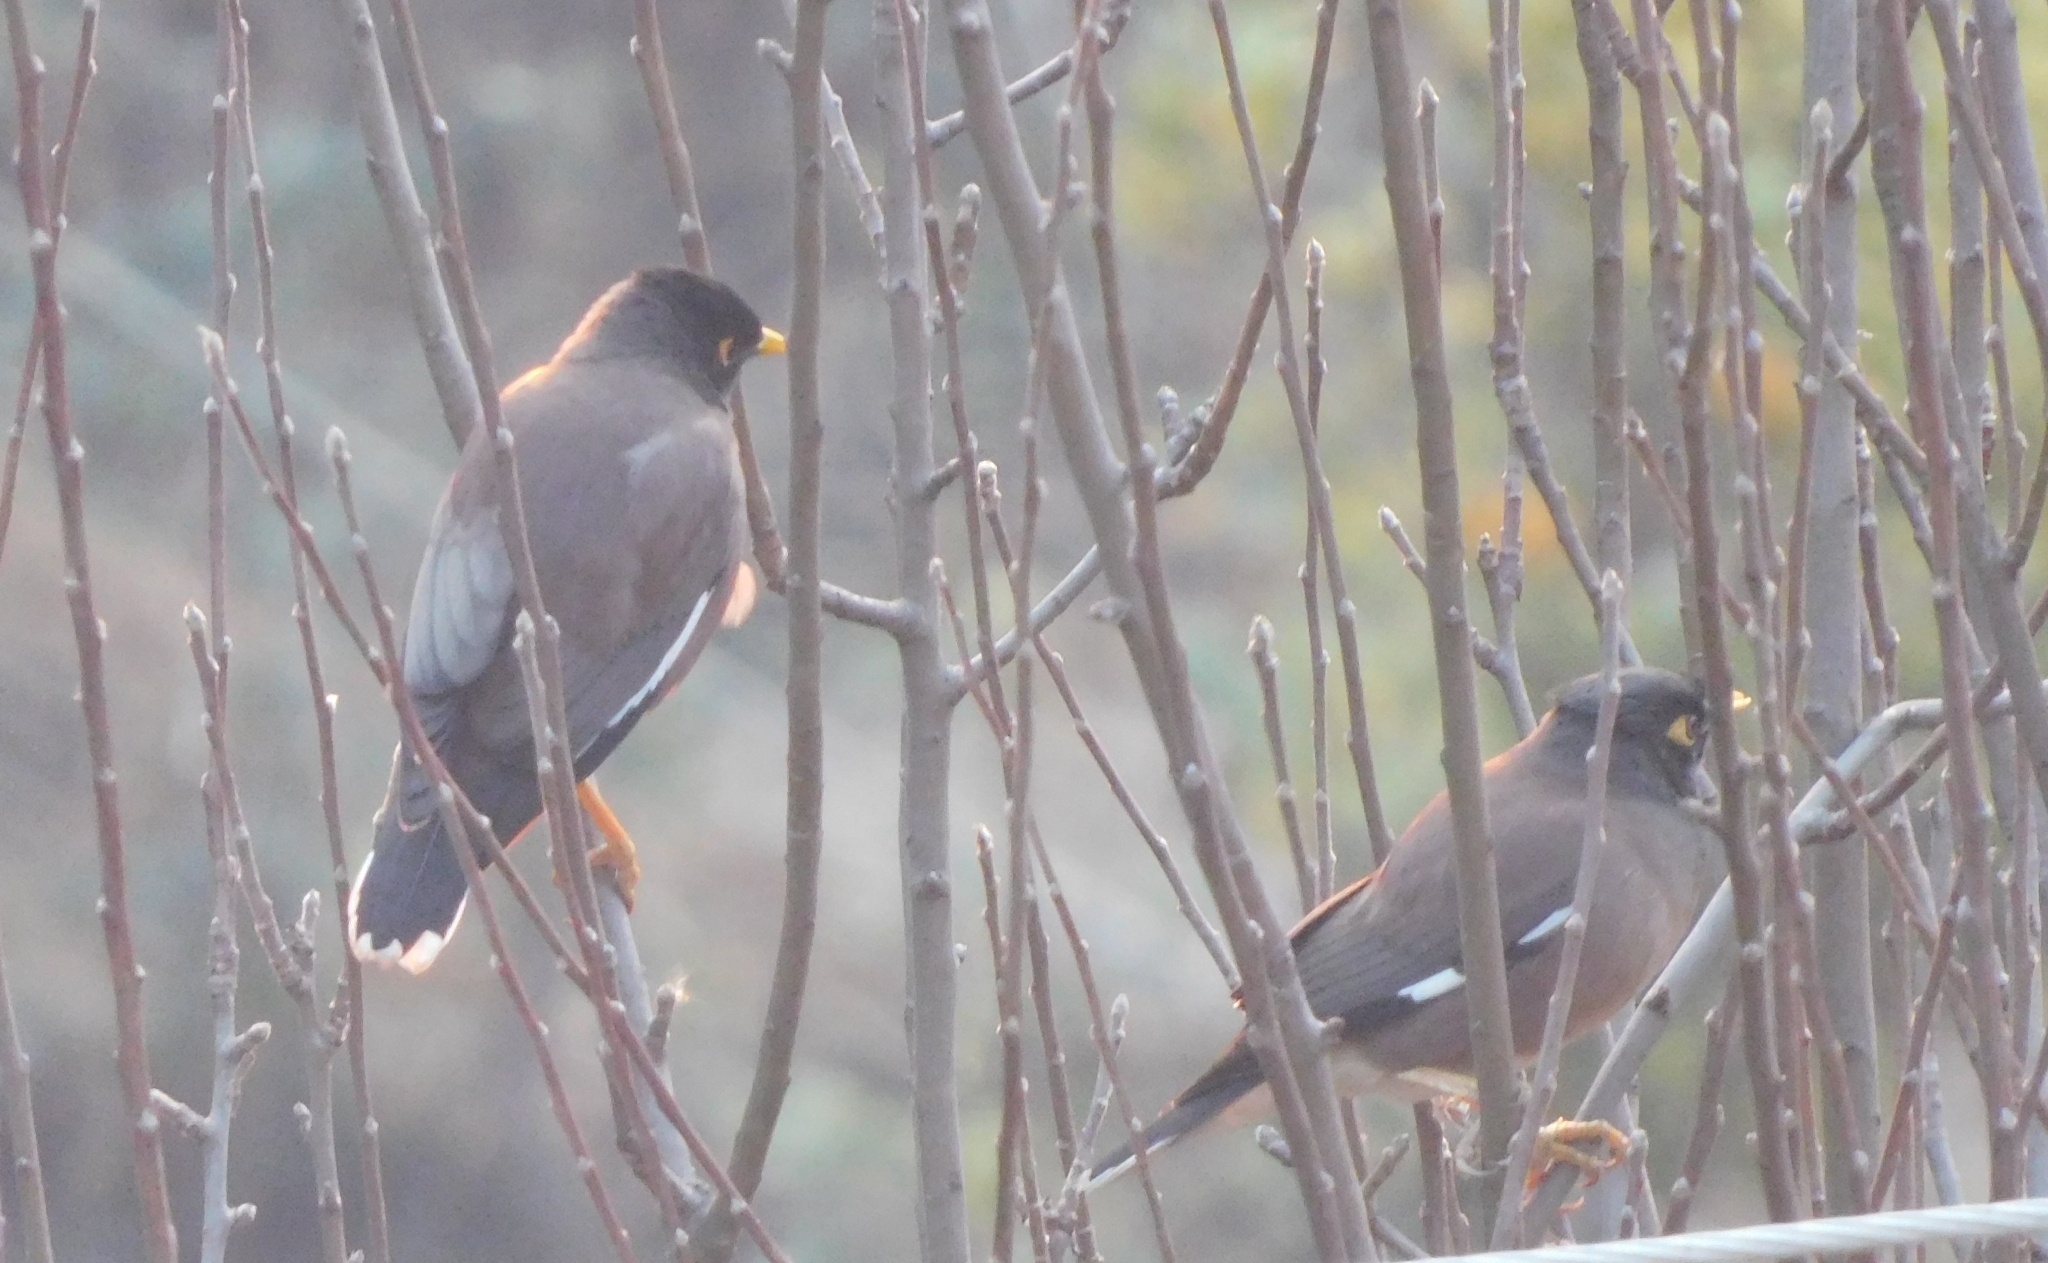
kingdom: Animalia
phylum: Chordata
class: Aves
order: Passeriformes
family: Sturnidae
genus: Acridotheres
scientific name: Acridotheres tristis
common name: Common myna
